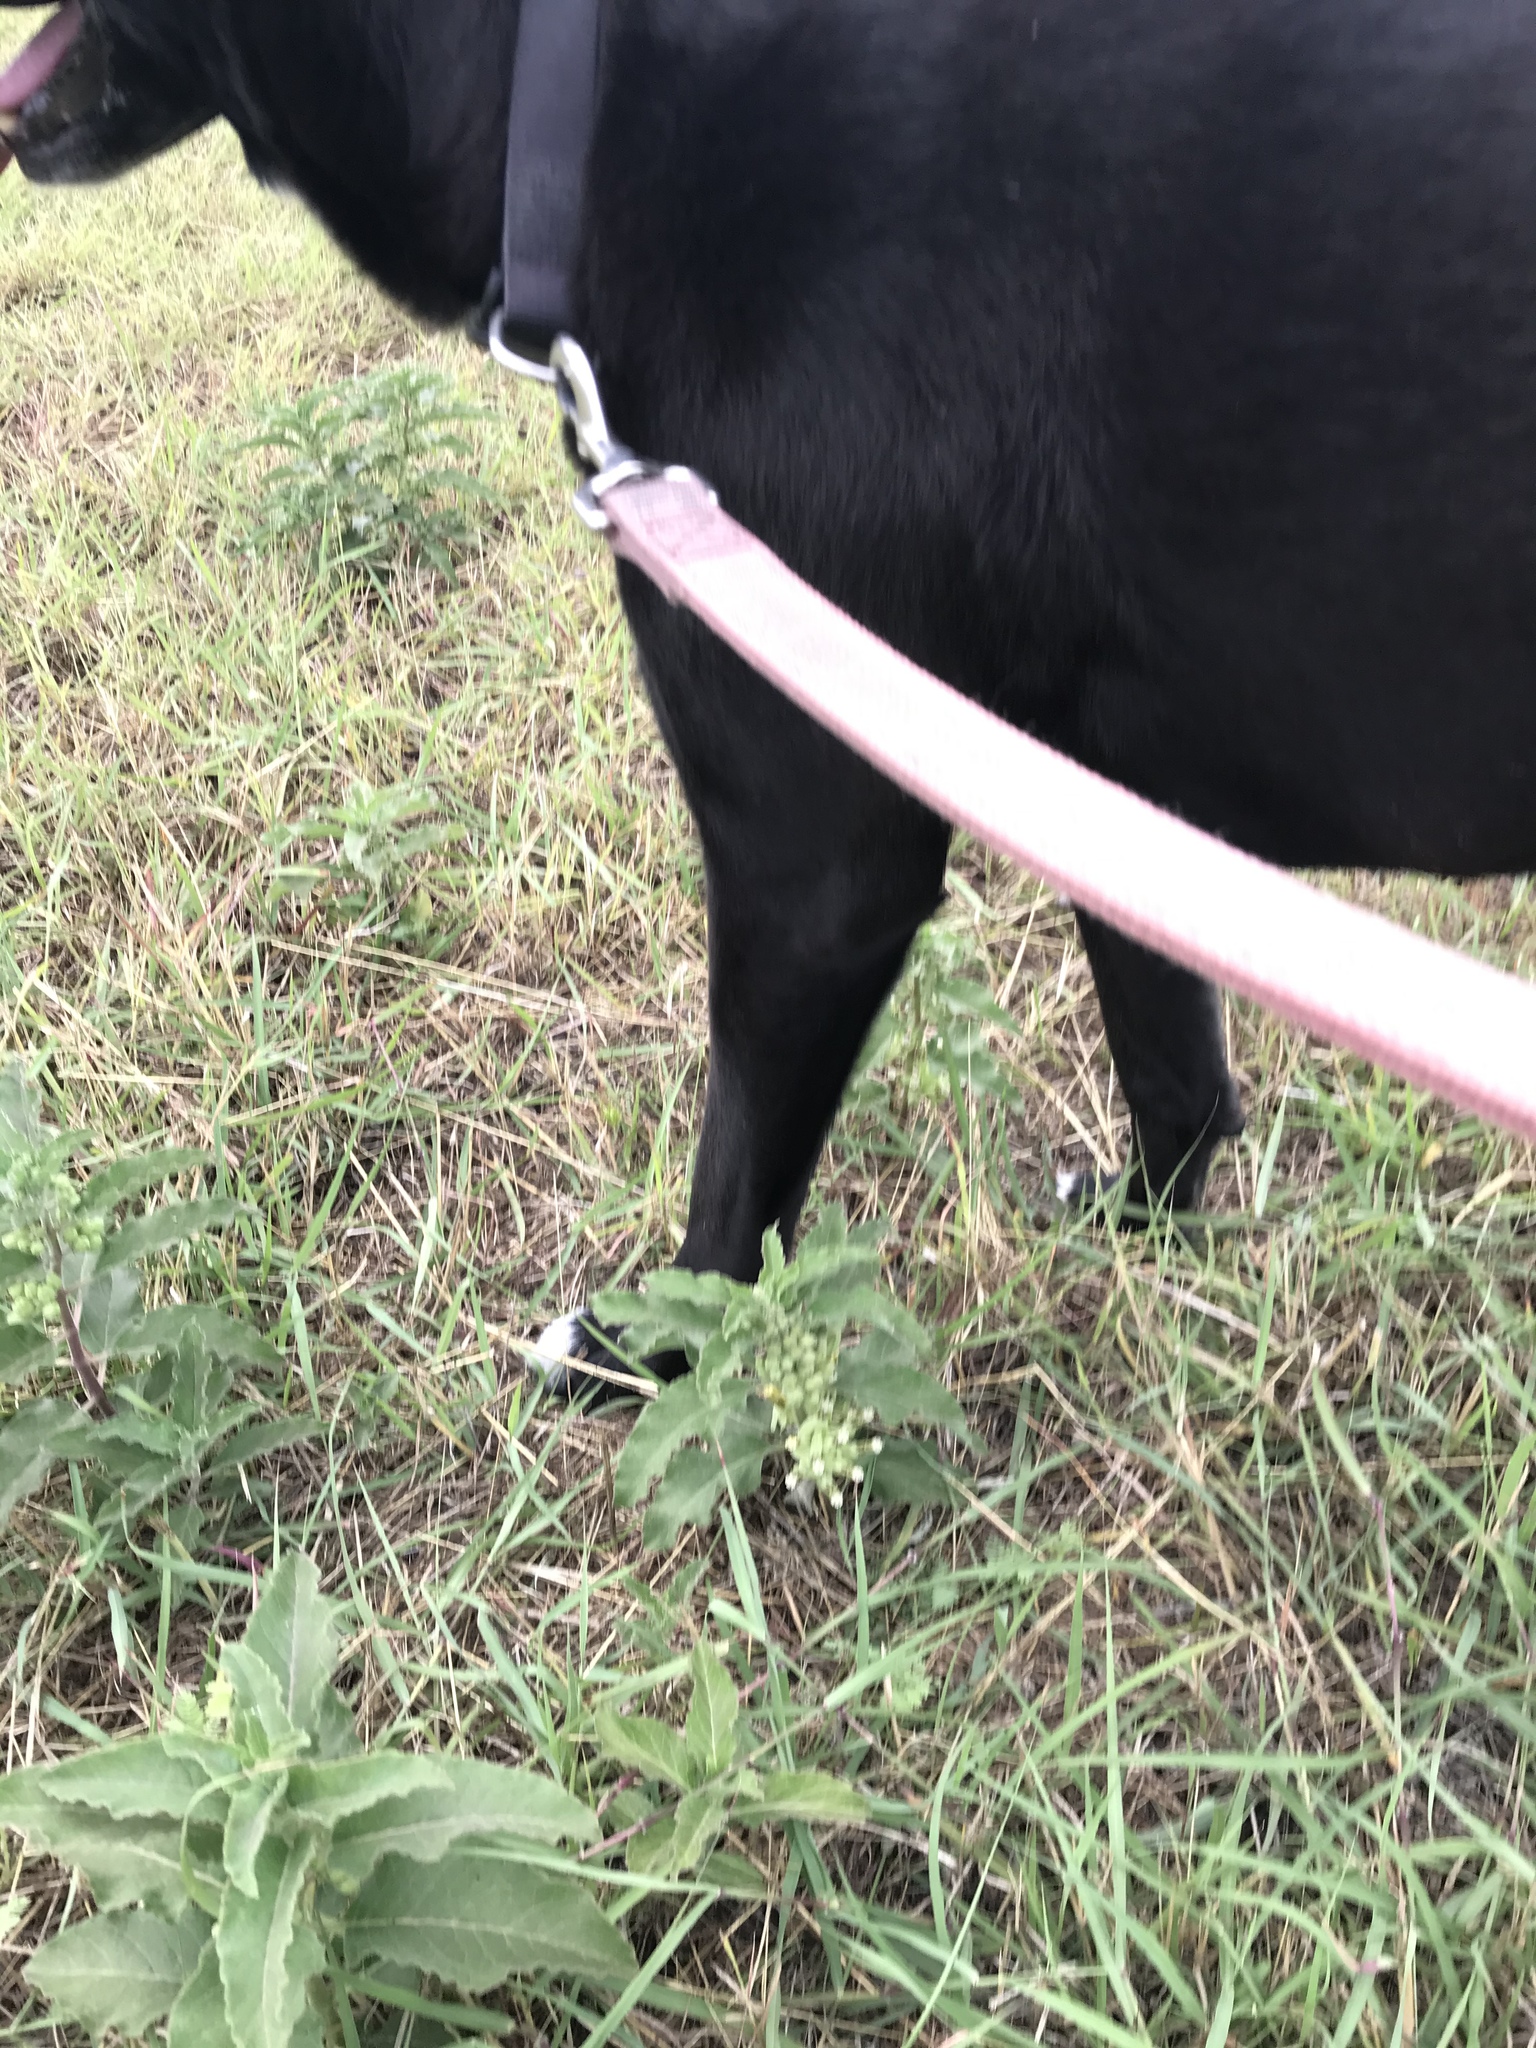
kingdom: Plantae
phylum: Tracheophyta
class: Magnoliopsida
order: Gentianales
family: Apocynaceae
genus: Asclepias
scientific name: Asclepias oenotheroides
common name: Zizotes milkweed
